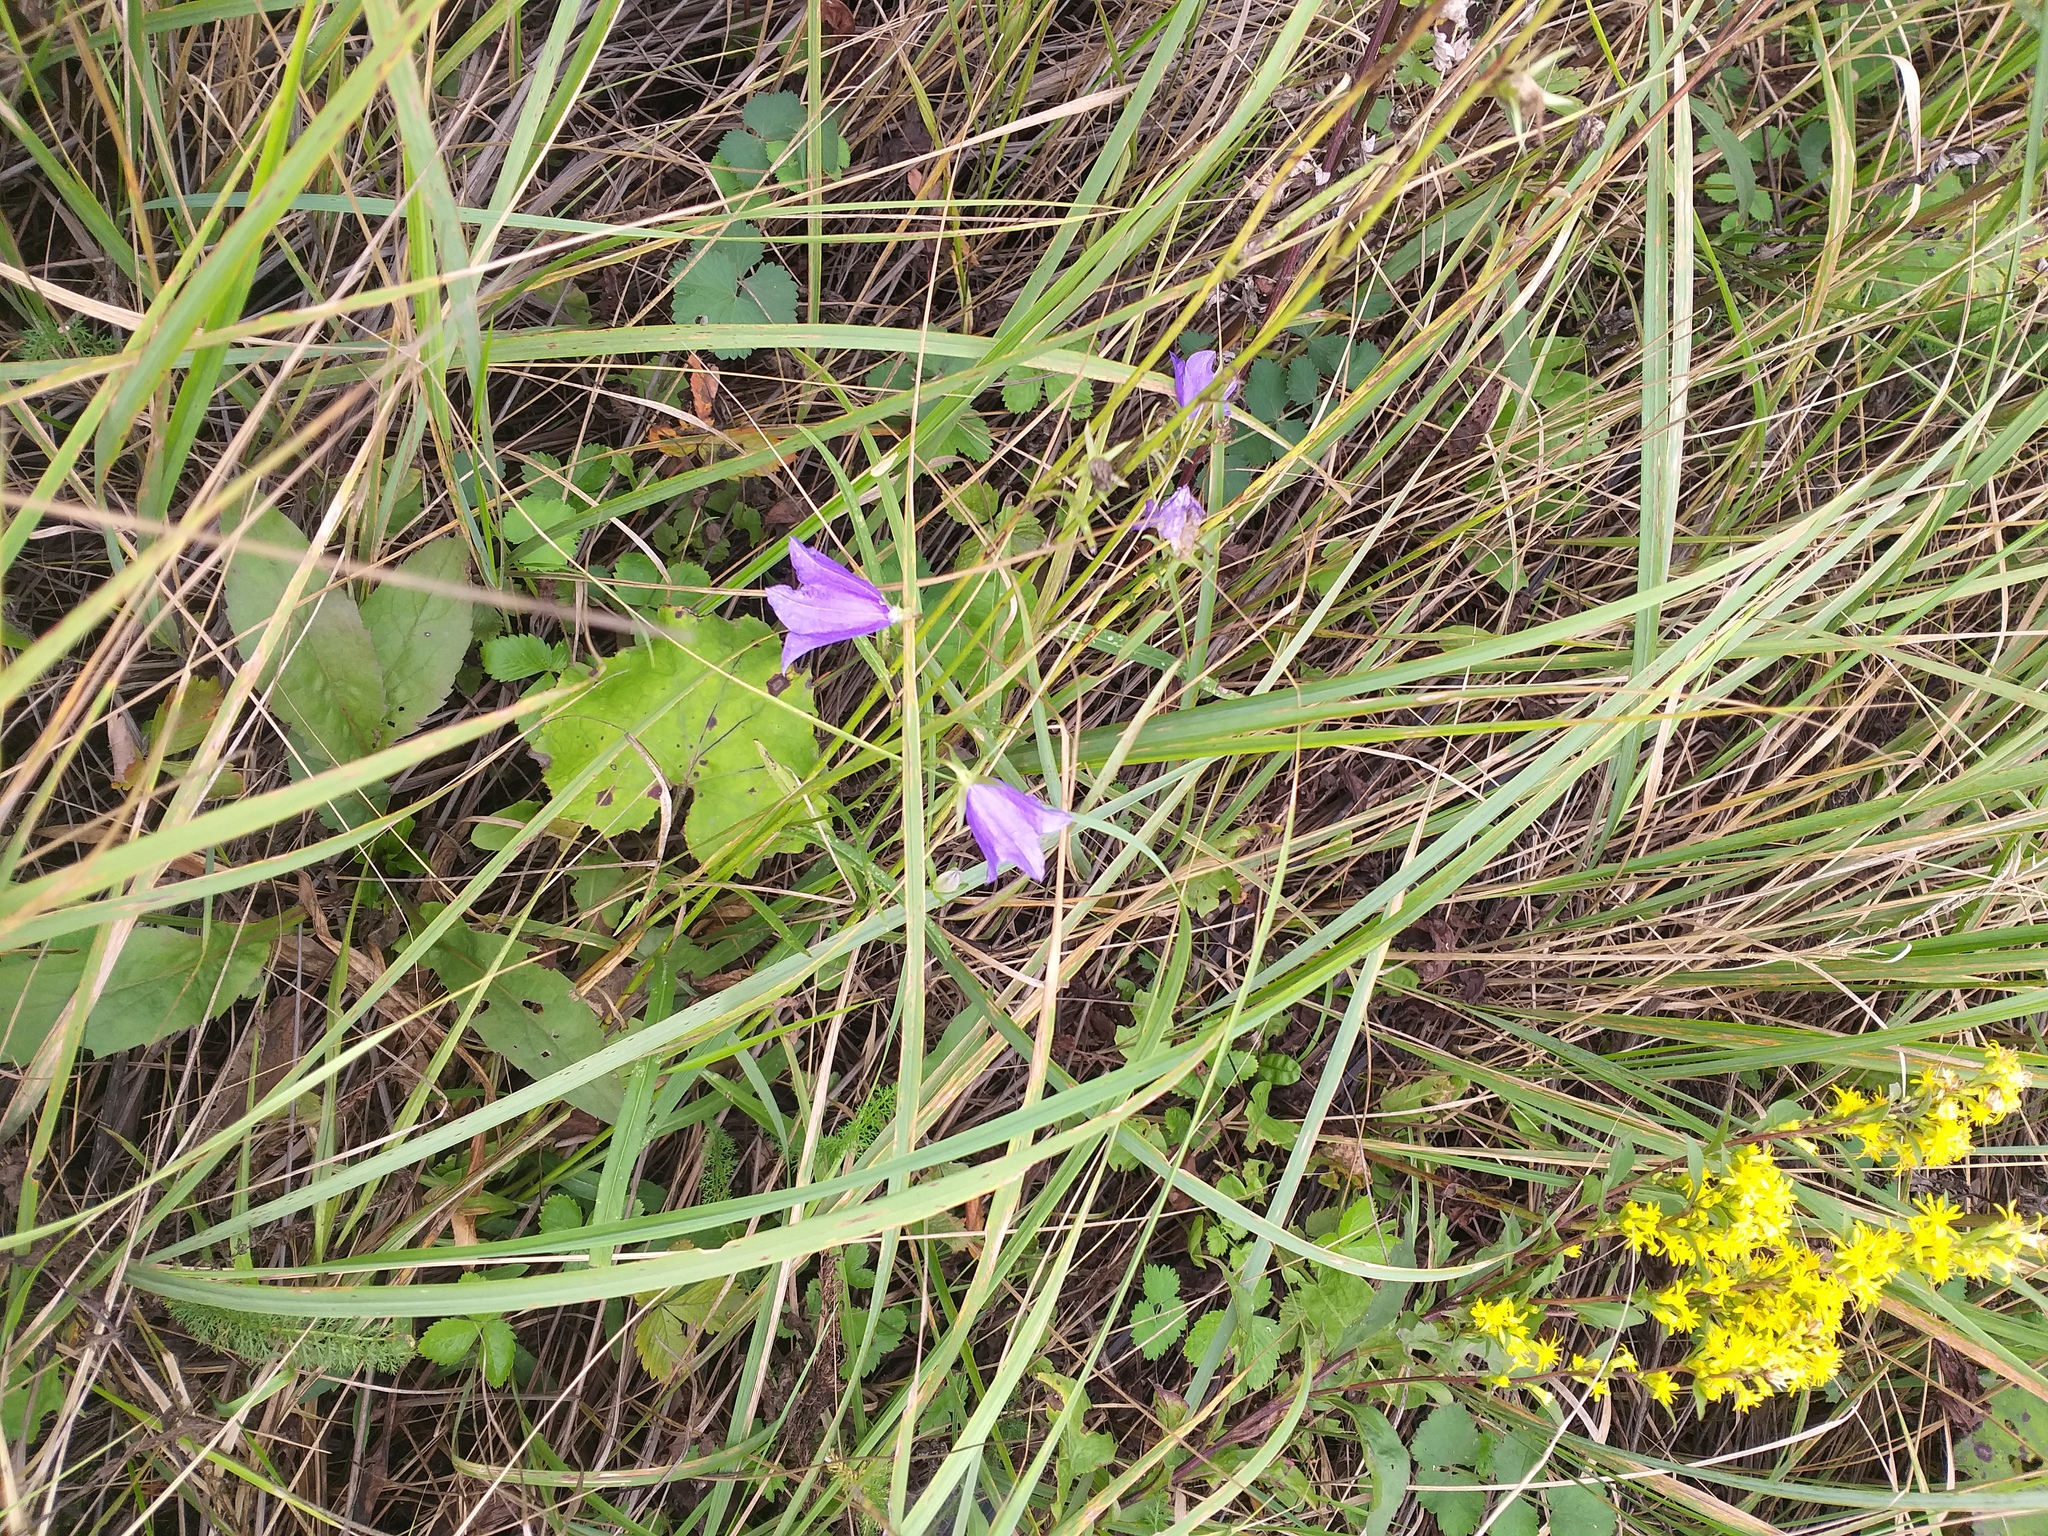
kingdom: Plantae
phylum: Tracheophyta
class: Magnoliopsida
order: Asterales
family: Campanulaceae
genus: Campanula
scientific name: Campanula persicifolia
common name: Peach-leaved bellflower
